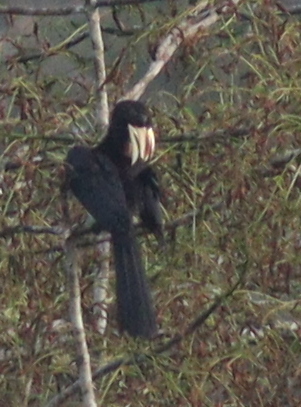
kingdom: Animalia
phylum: Chordata
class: Aves
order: Bucerotiformes
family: Bucerotidae
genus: Lophoceros
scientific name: Lophoceros fasciatus
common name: African pied hornbill
